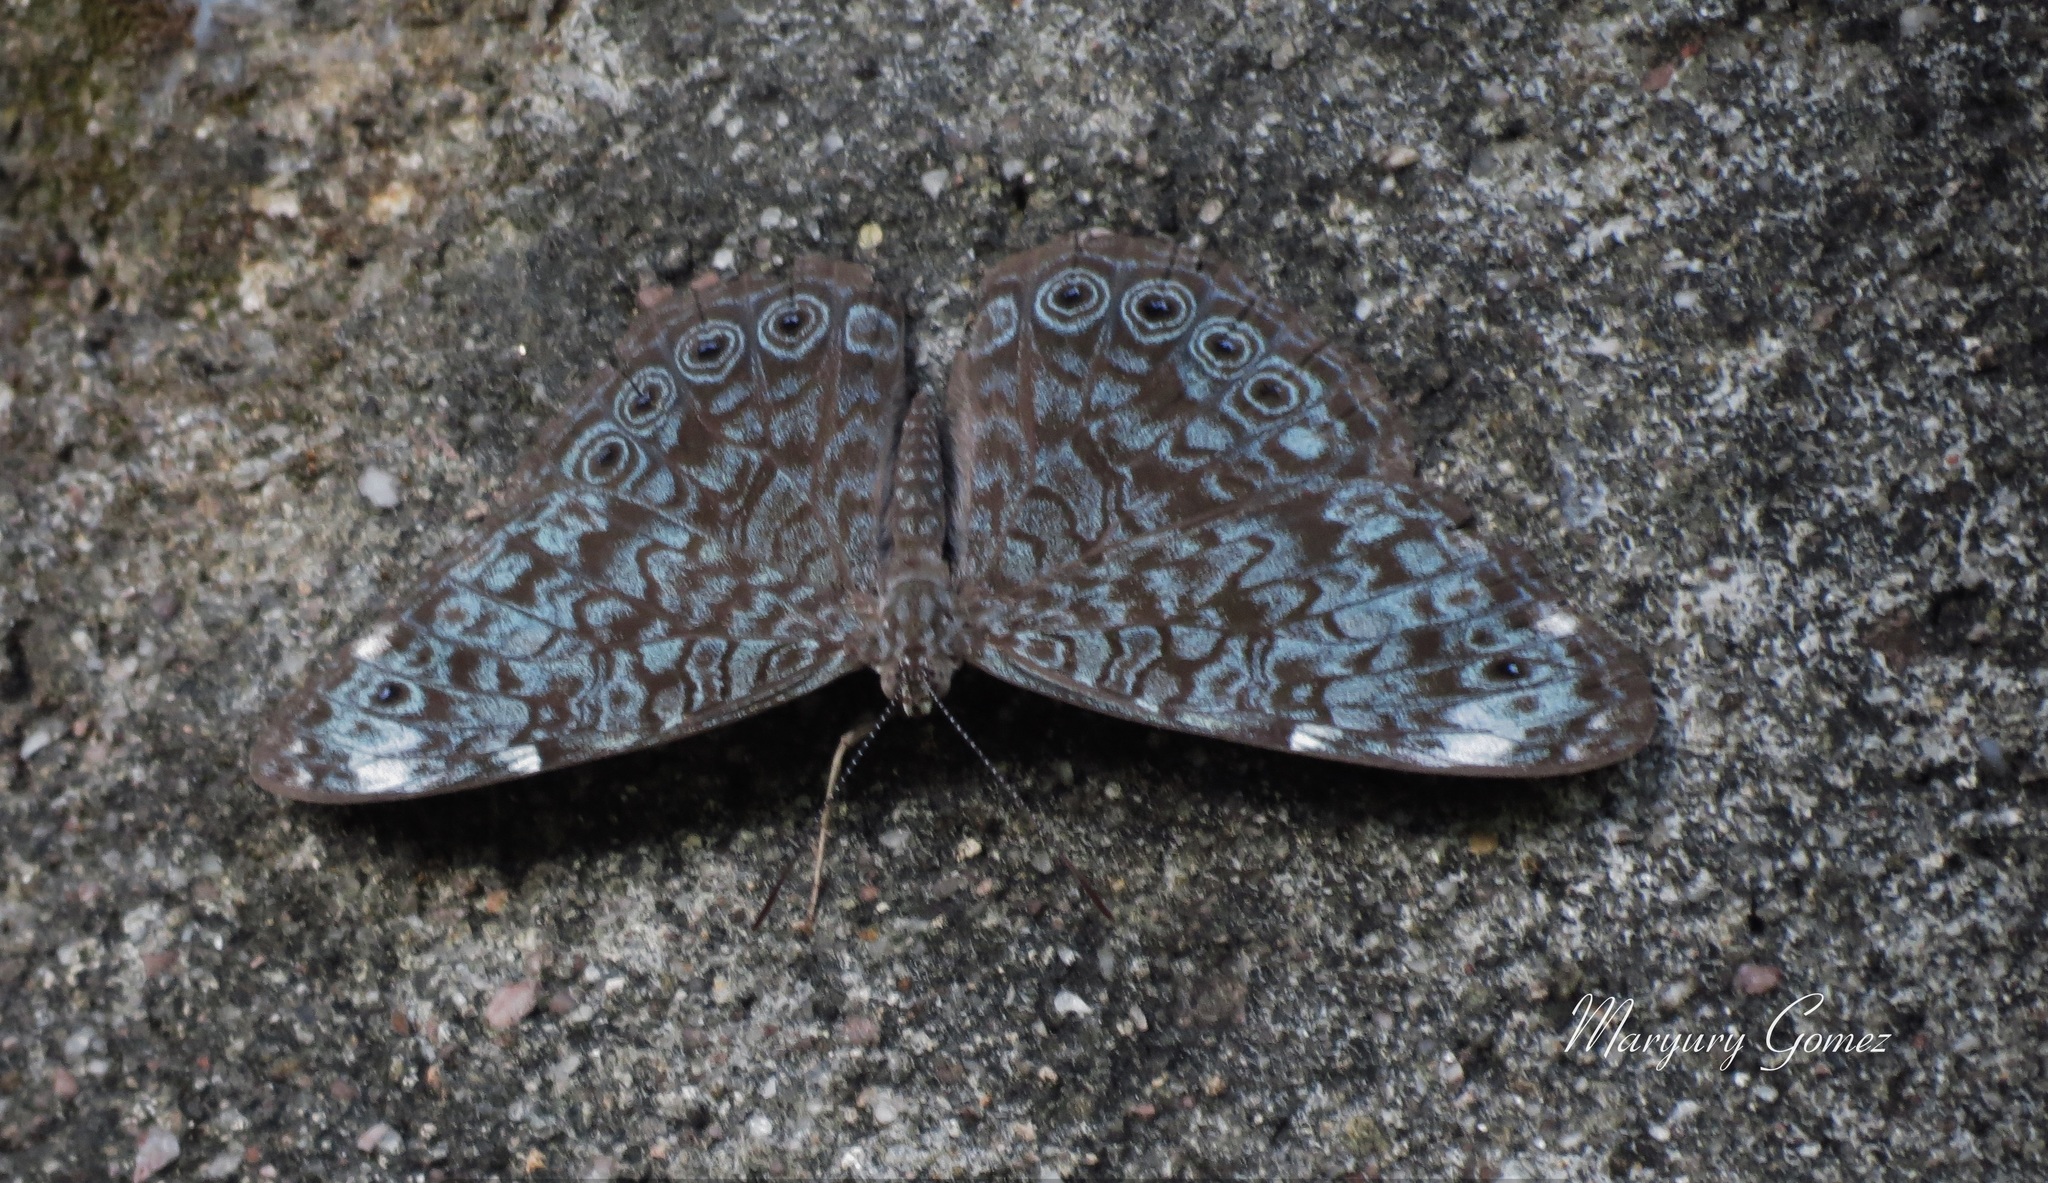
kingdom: Animalia
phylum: Arthropoda
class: Insecta
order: Lepidoptera
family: Nymphalidae
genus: Hamadryas
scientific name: Hamadryas atlantis
